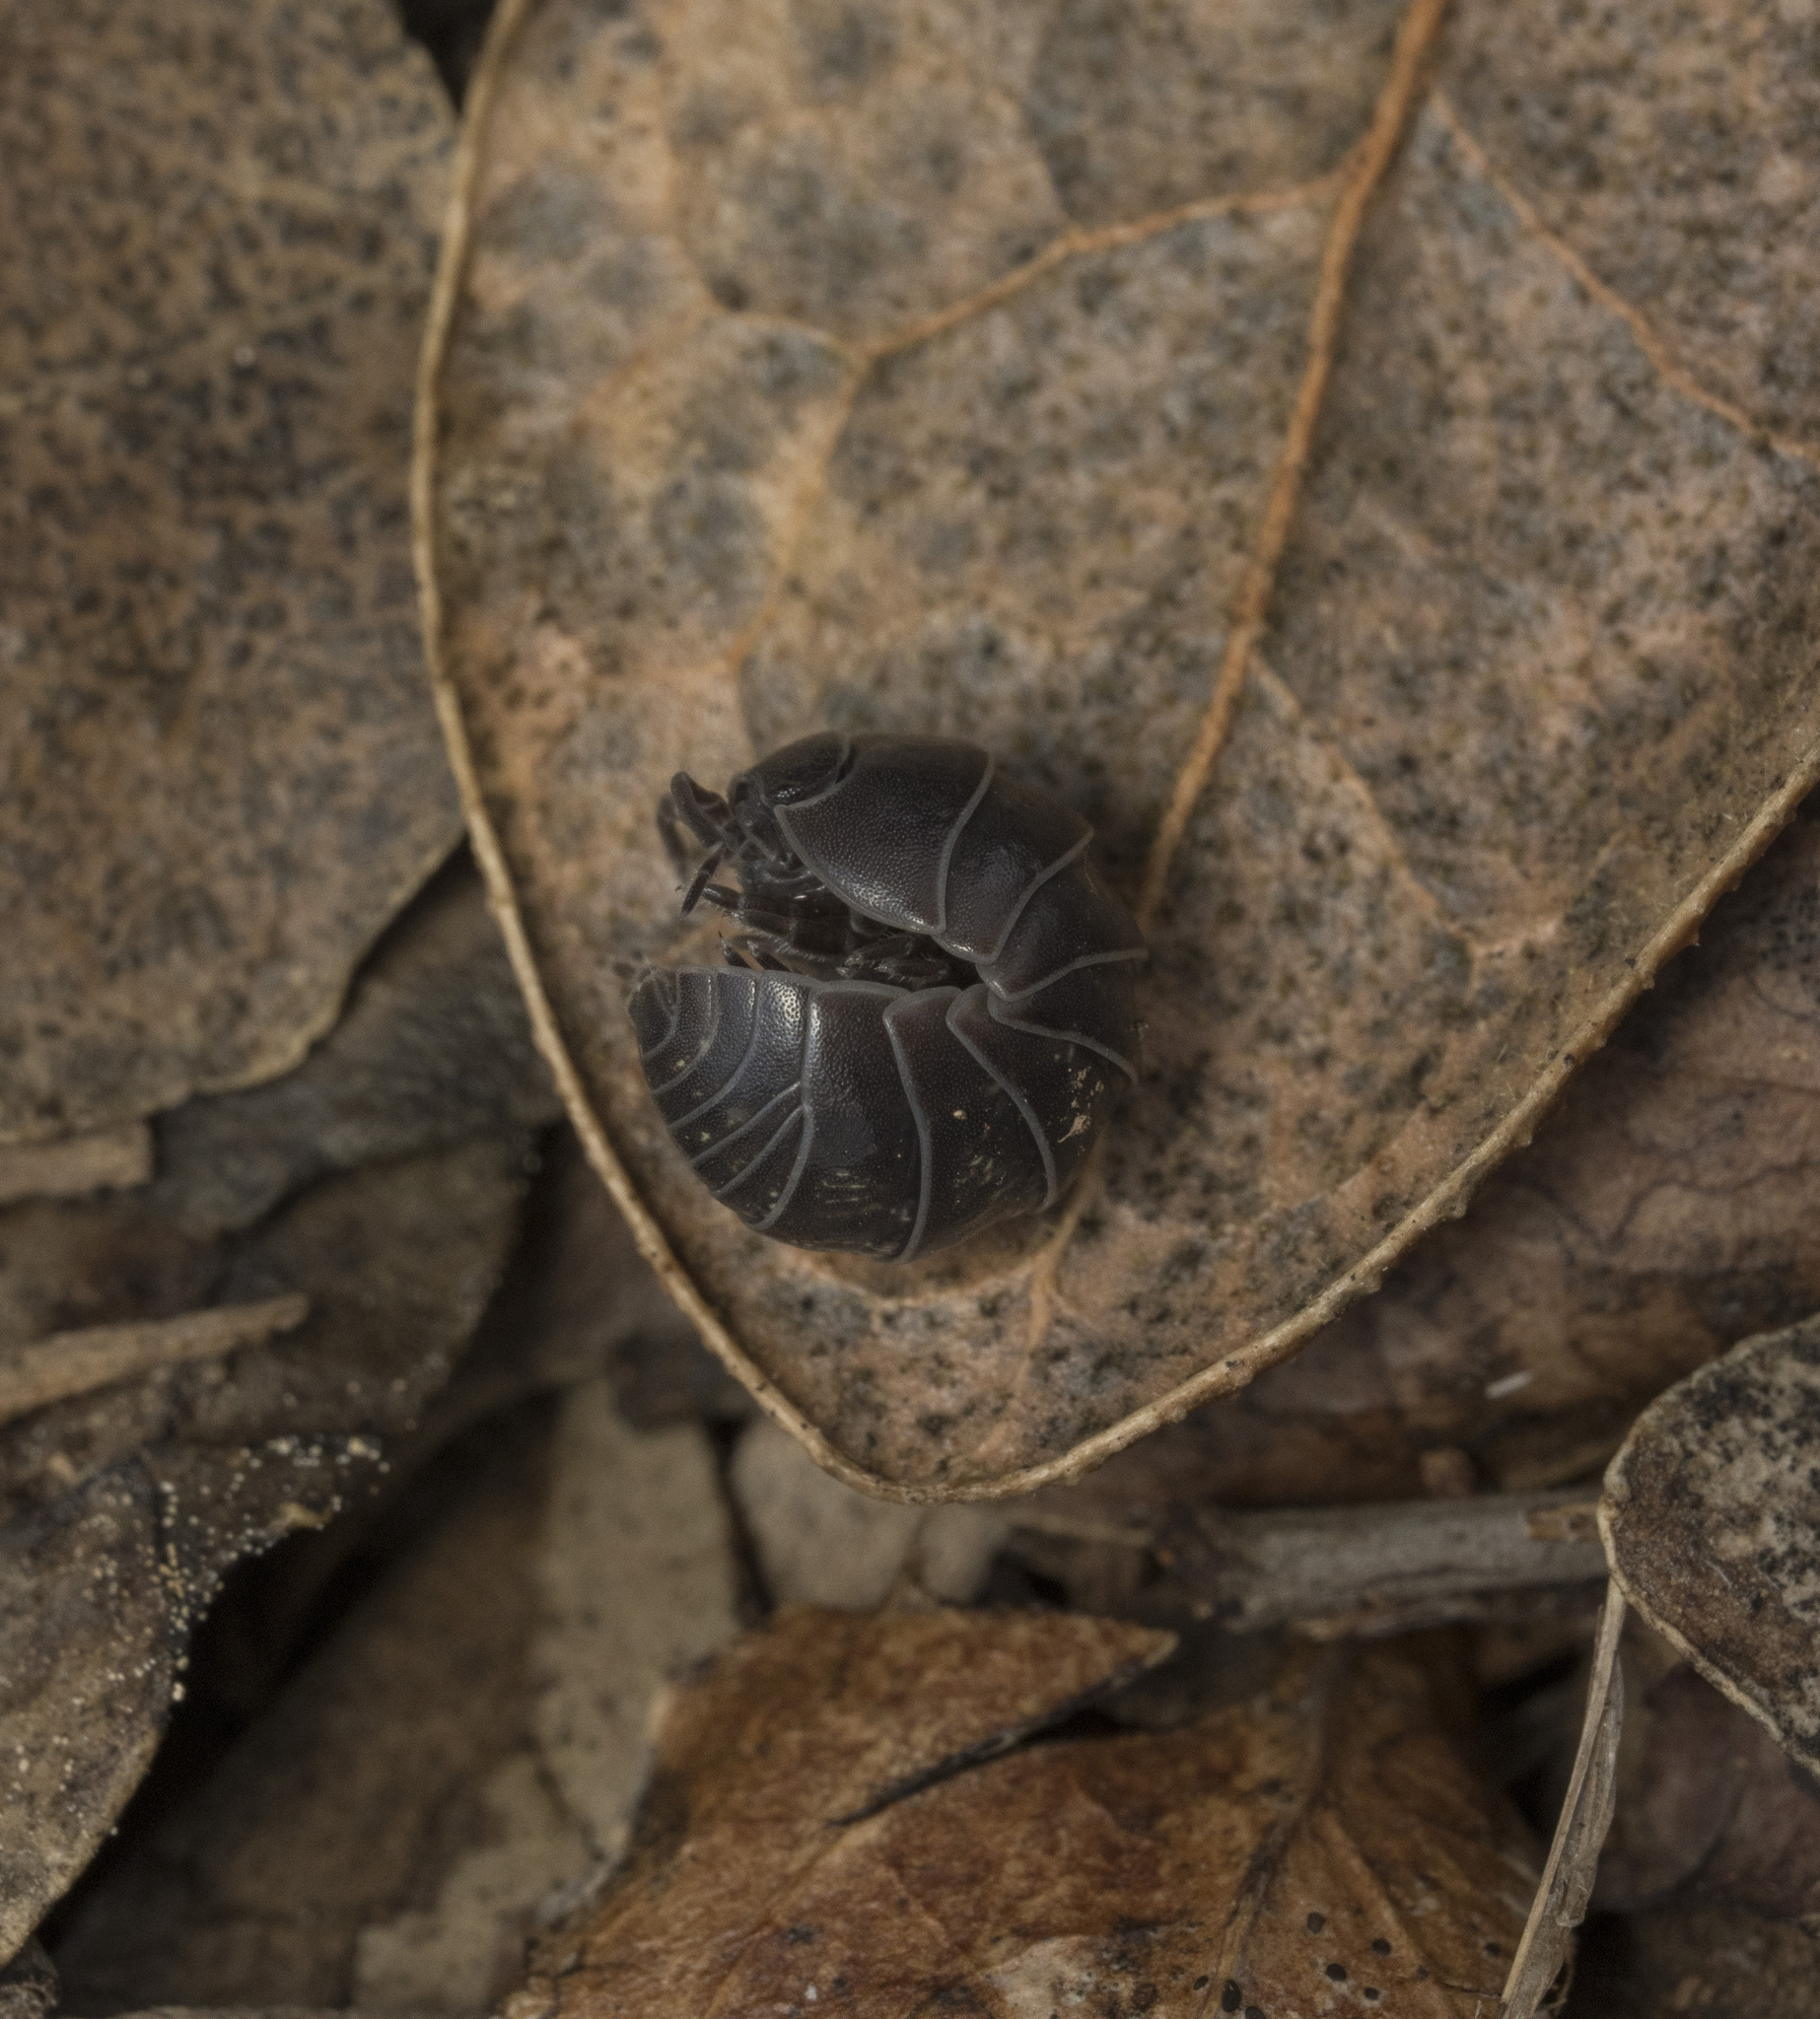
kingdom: Animalia
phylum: Arthropoda
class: Malacostraca
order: Isopoda
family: Armadillidiidae
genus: Armadillidium
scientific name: Armadillidium vulgare
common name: Common pill woodlouse
